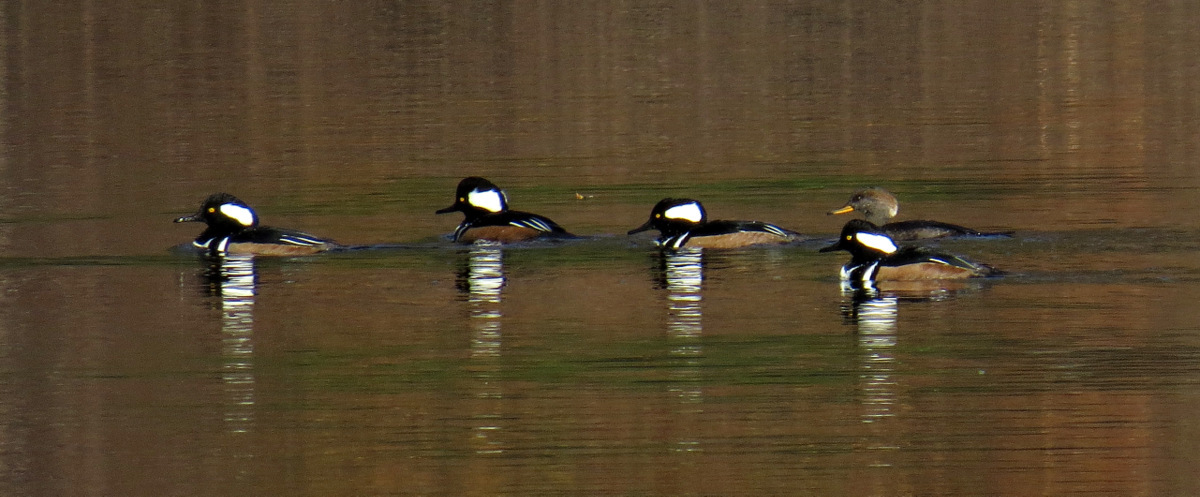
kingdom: Animalia
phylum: Chordata
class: Aves
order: Anseriformes
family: Anatidae
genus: Lophodytes
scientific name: Lophodytes cucullatus
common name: Hooded merganser
